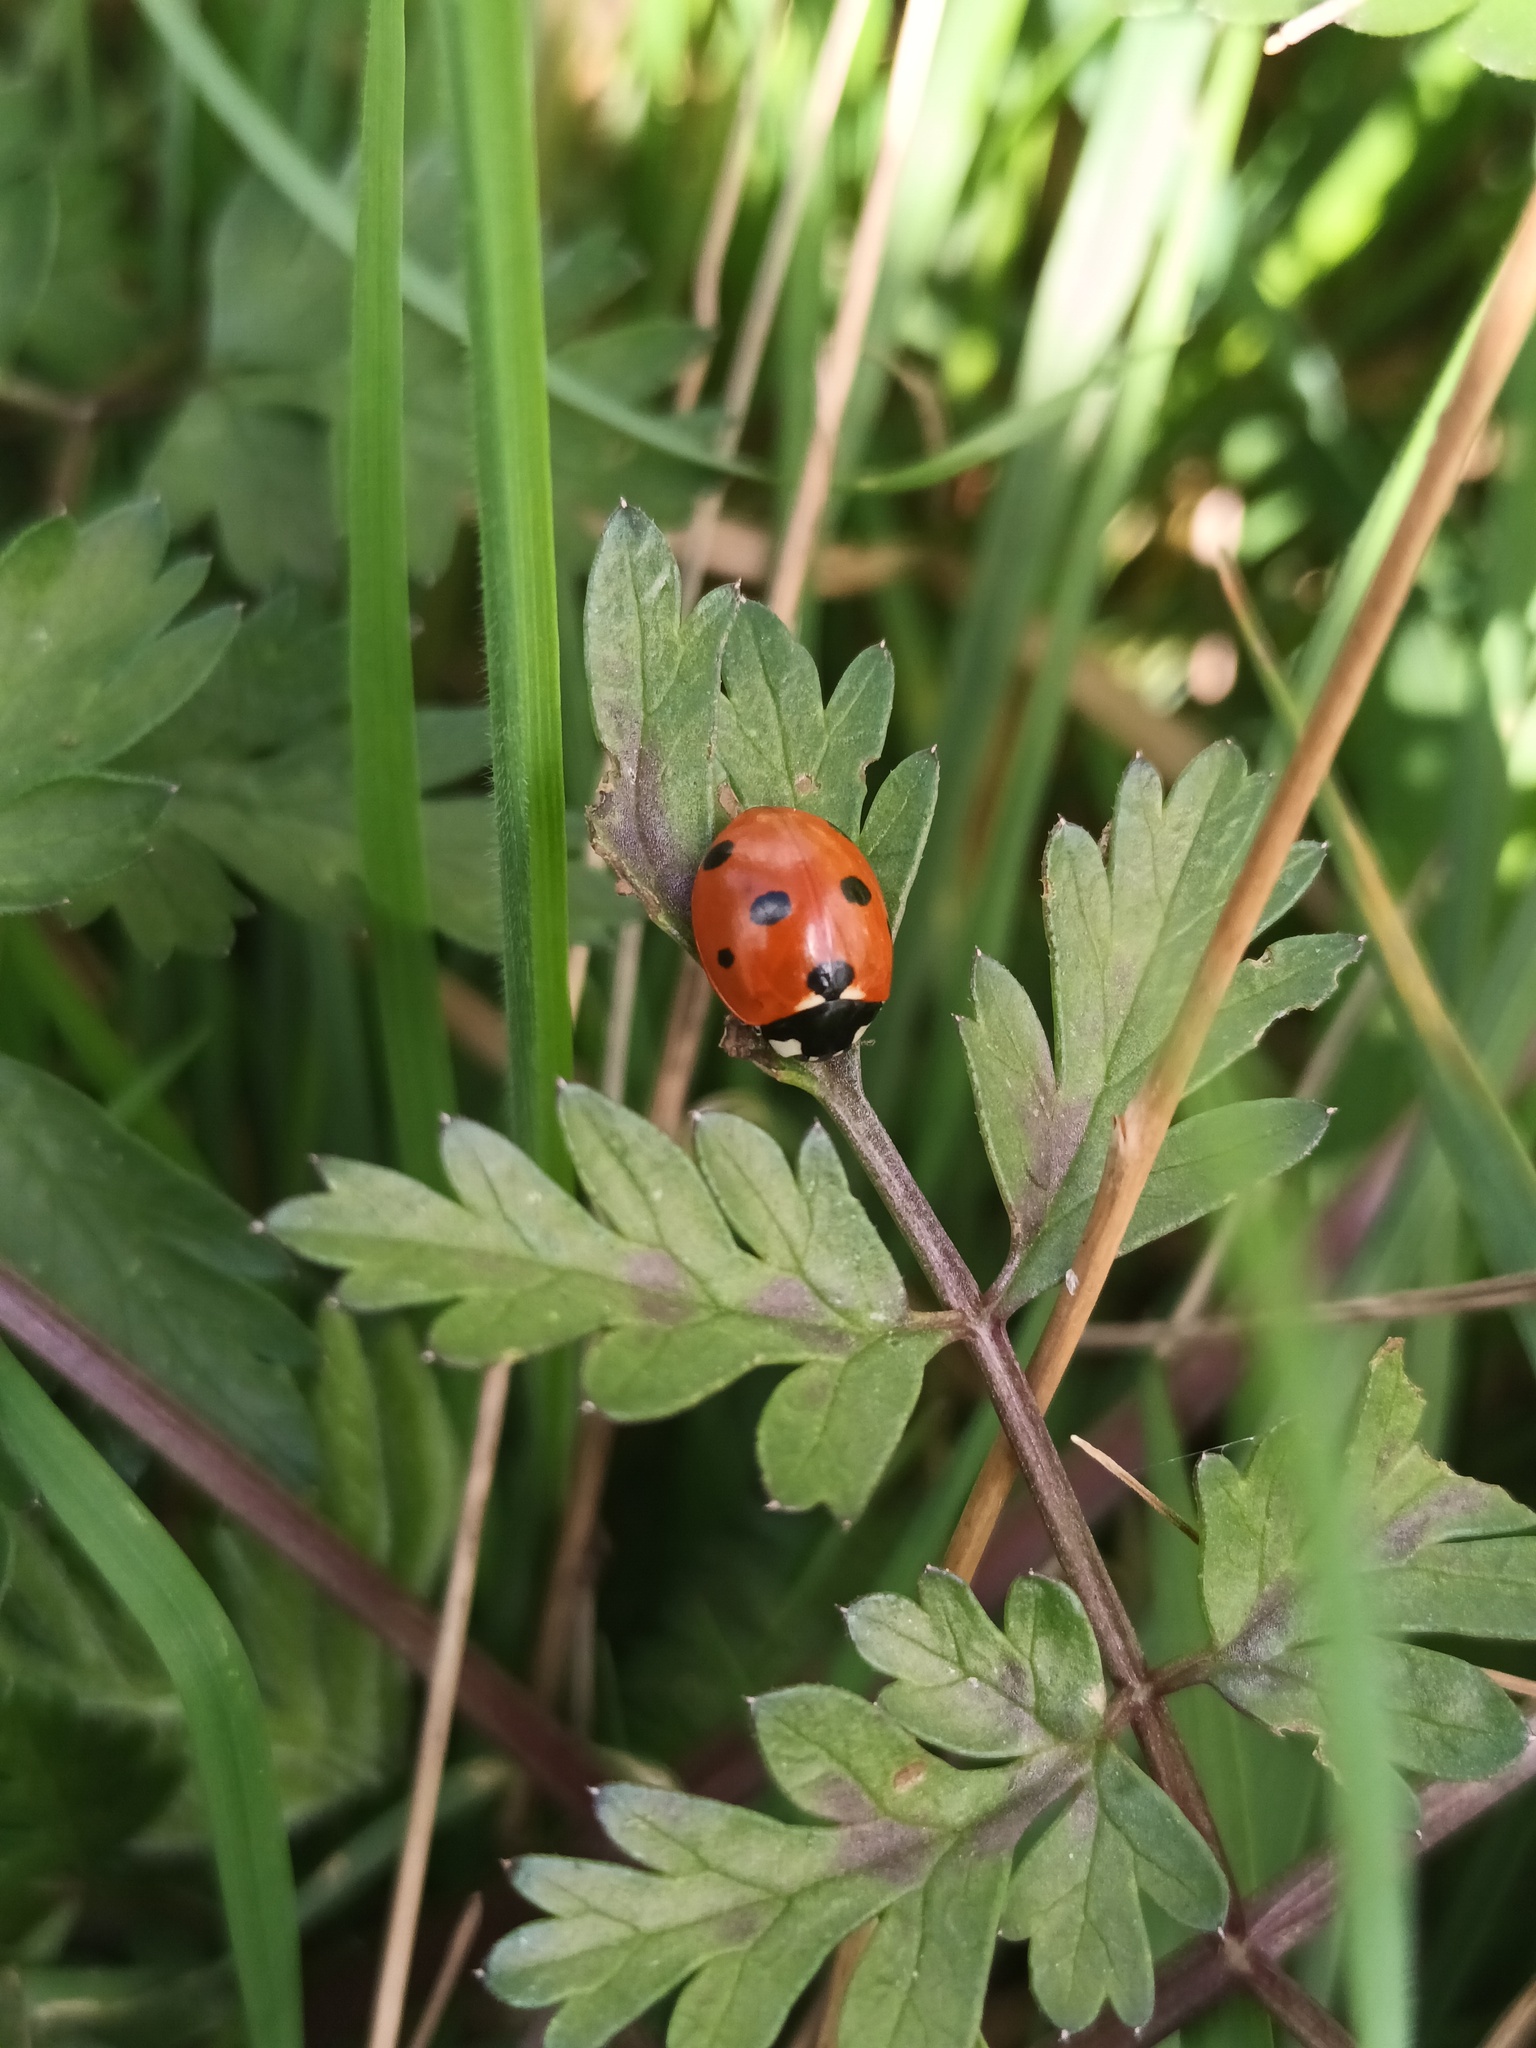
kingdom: Animalia
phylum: Arthropoda
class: Insecta
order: Coleoptera
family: Coccinellidae
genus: Coccinella
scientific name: Coccinella septempunctata
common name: Sevenspotted lady beetle
